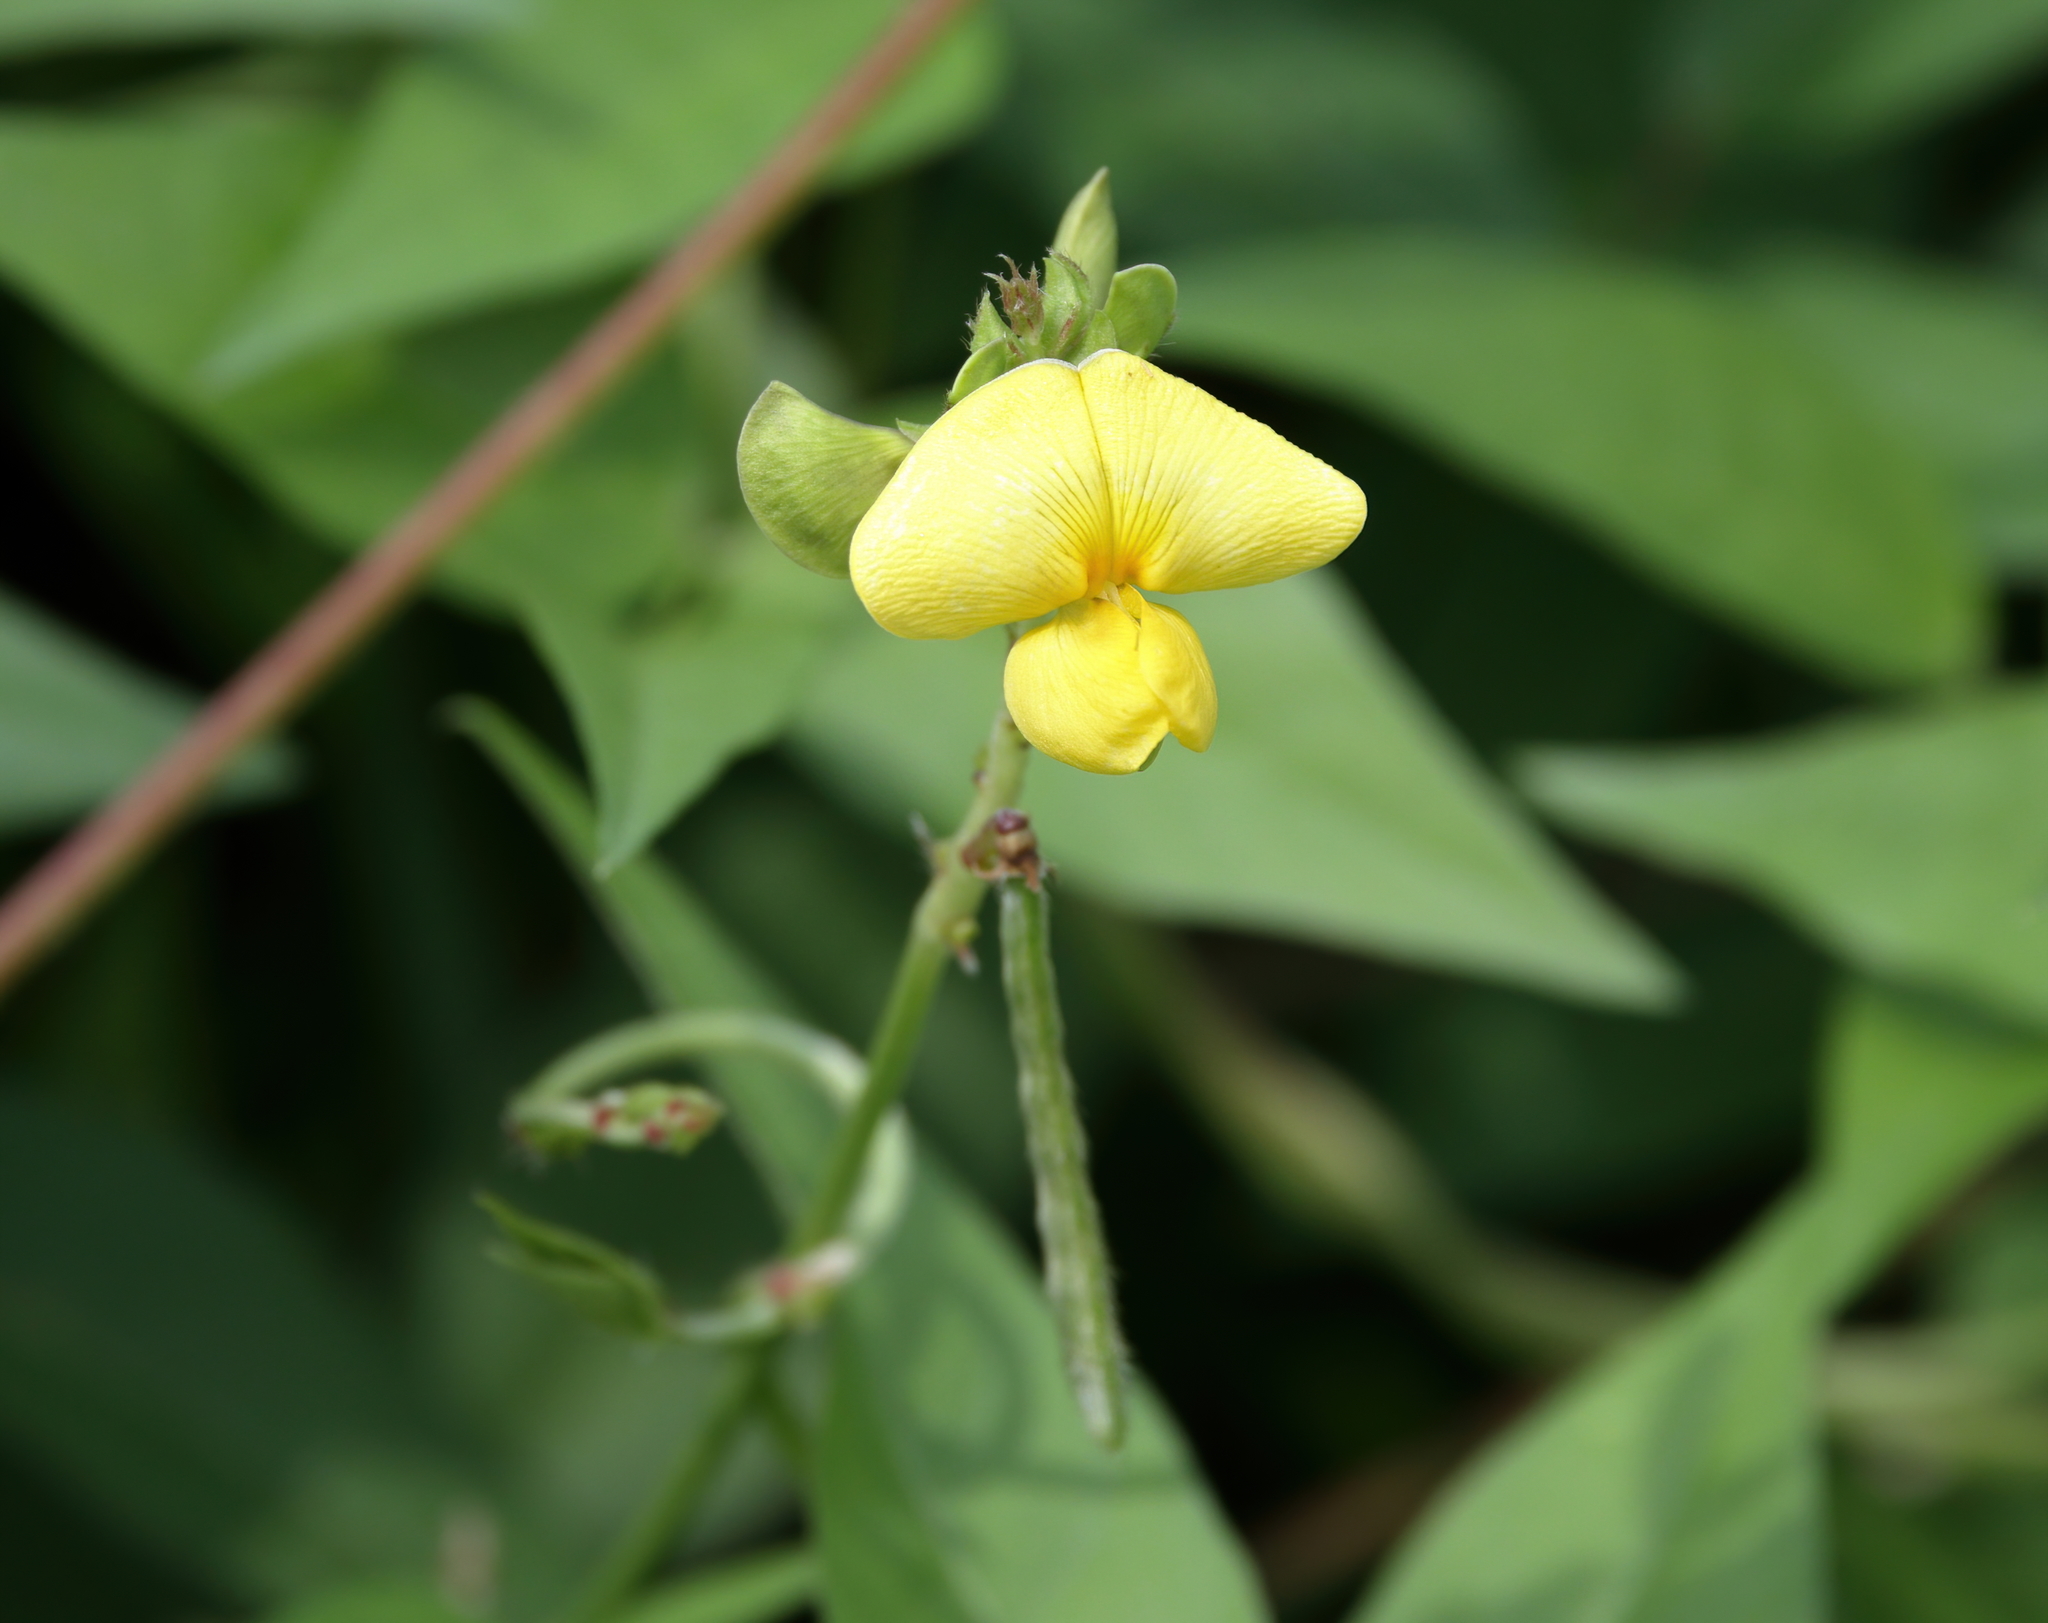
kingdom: Plantae
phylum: Tracheophyta
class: Magnoliopsida
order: Fabales
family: Fabaceae
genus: Vigna
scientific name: Vigna luteola
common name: Hairypod cowpea
